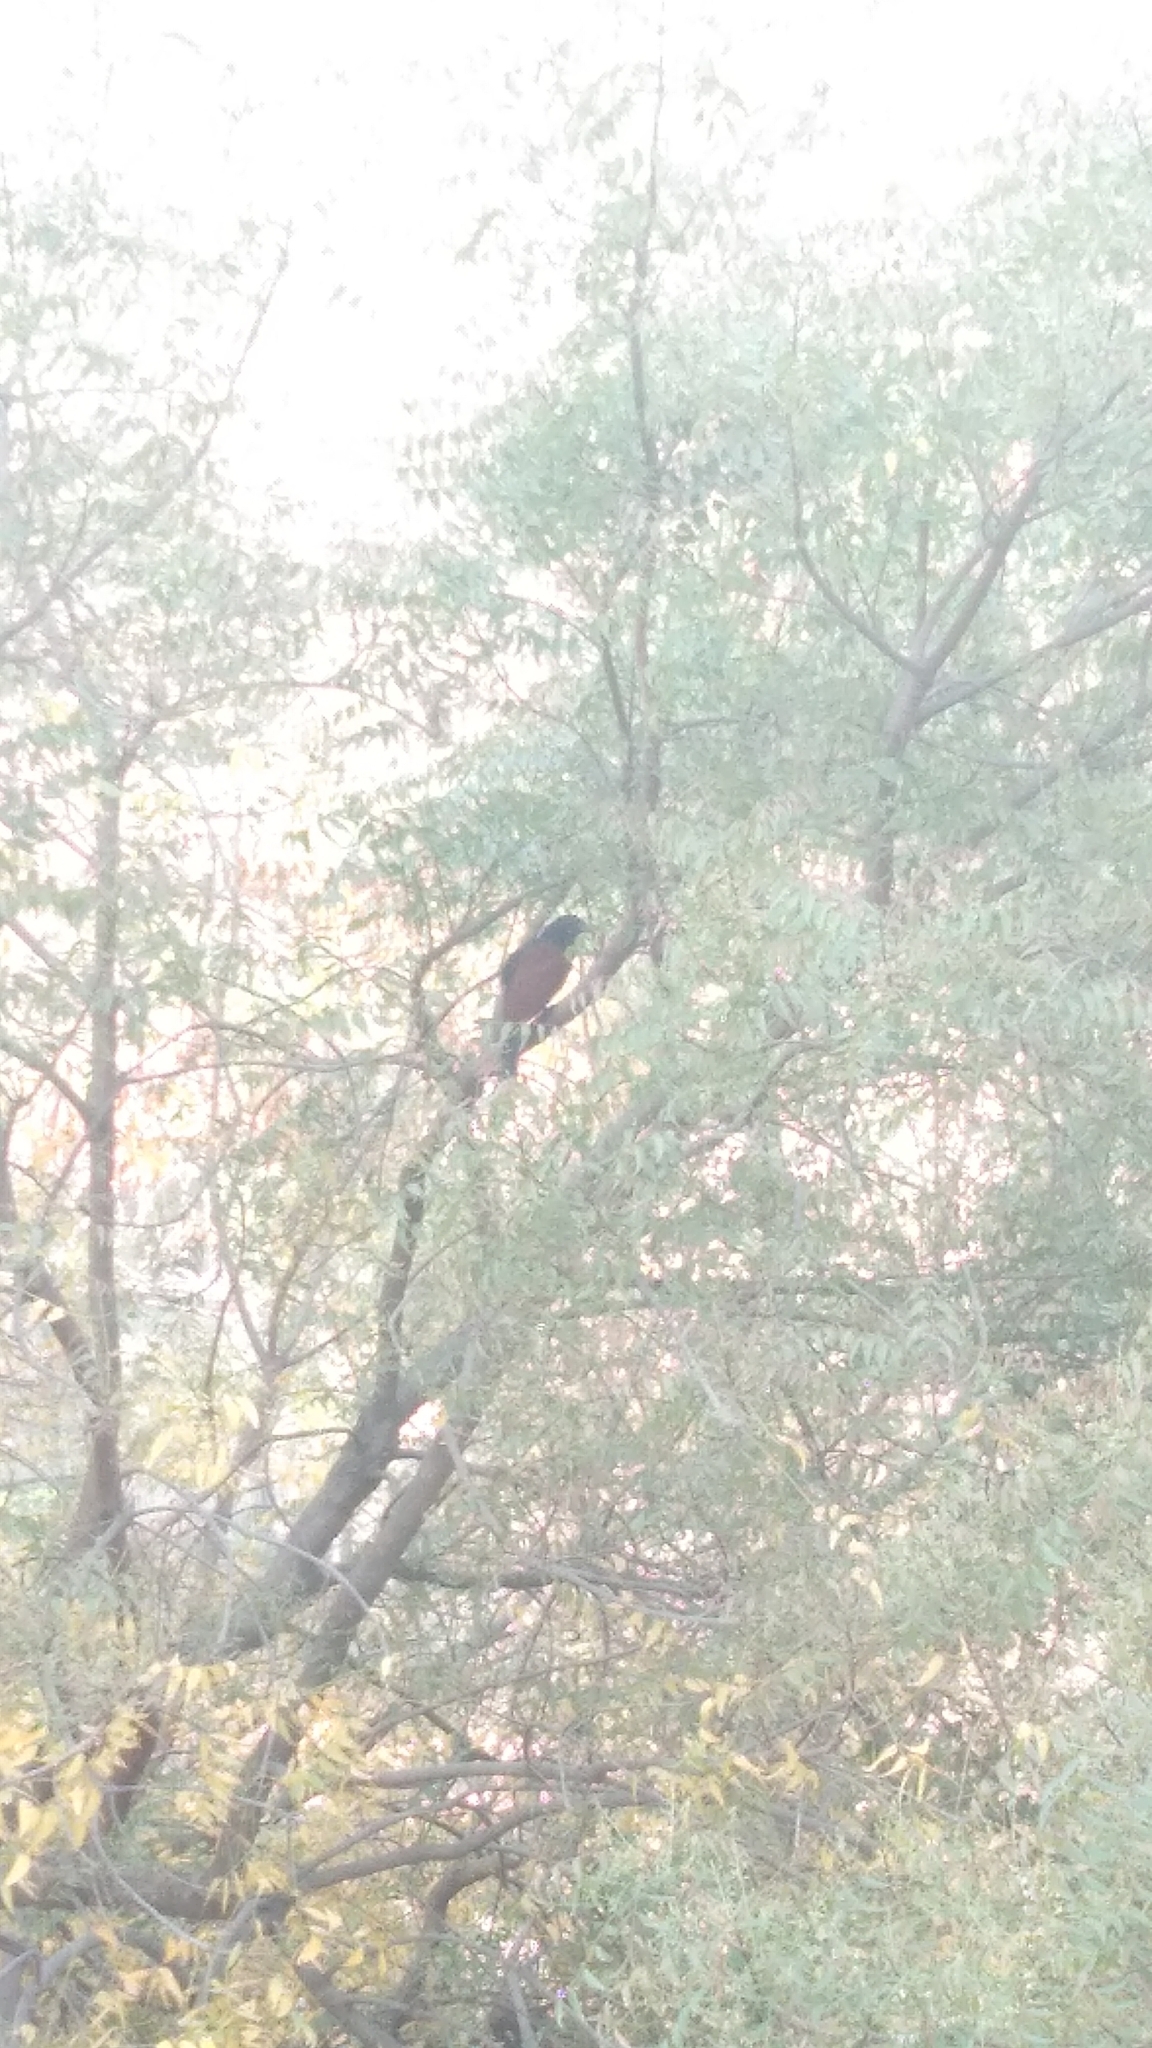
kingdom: Animalia
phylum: Chordata
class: Aves
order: Cuculiformes
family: Cuculidae
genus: Centropus
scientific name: Centropus sinensis
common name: Greater coucal
